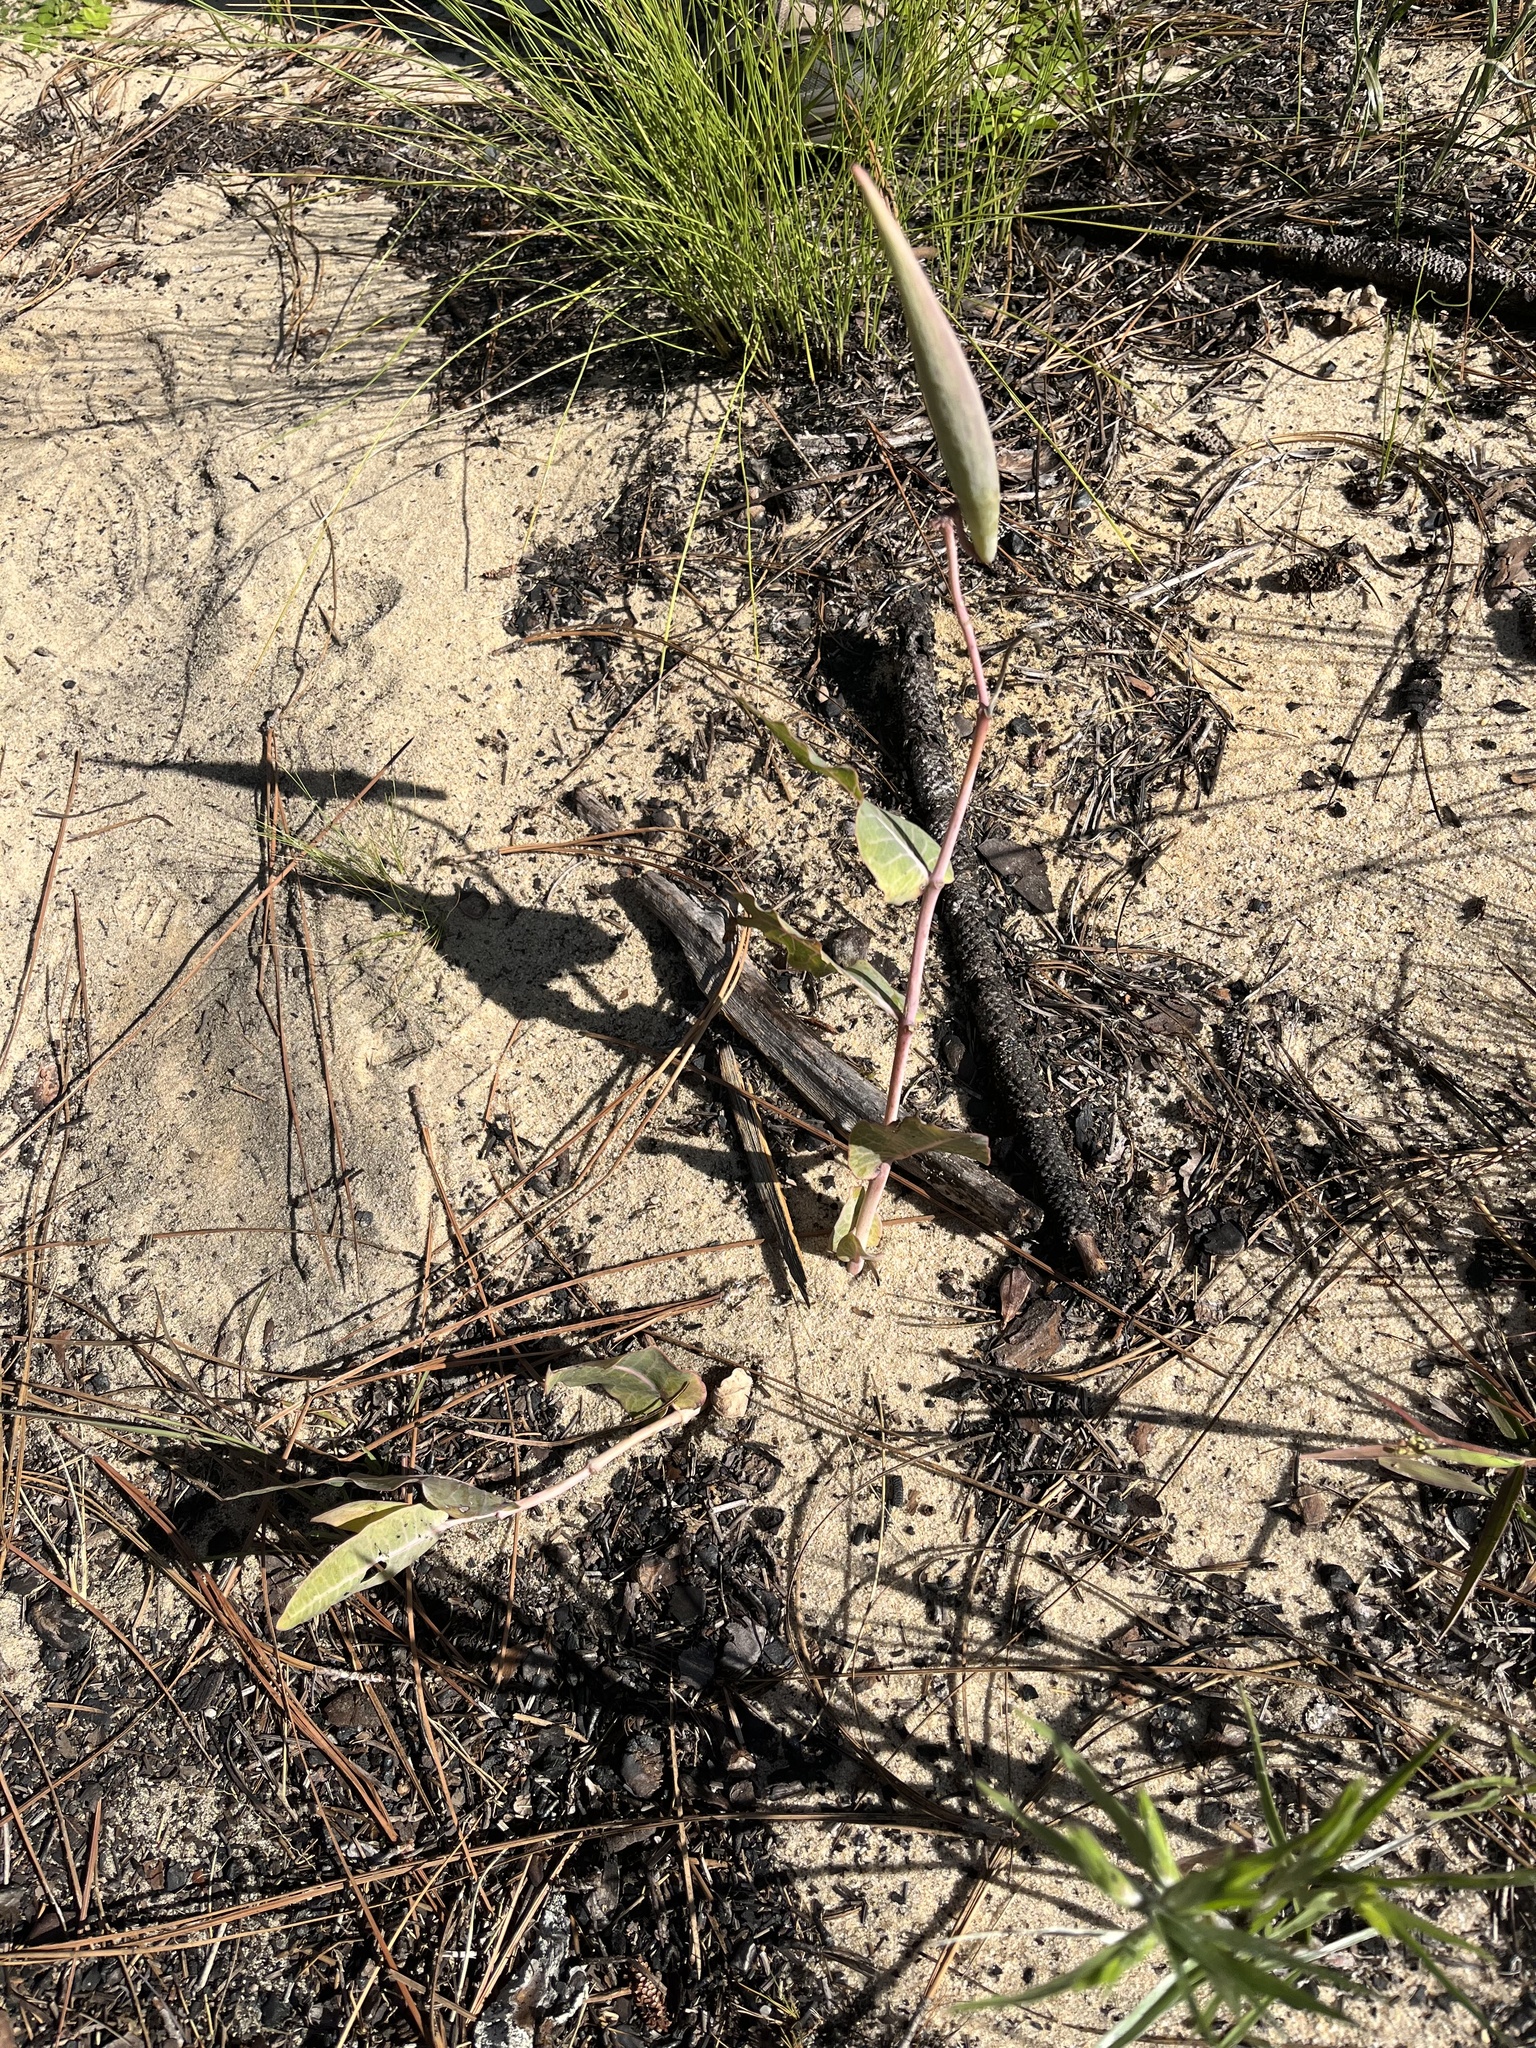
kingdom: Plantae
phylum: Tracheophyta
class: Magnoliopsida
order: Gentianales
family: Apocynaceae
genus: Asclepias
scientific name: Asclepias humistrata
